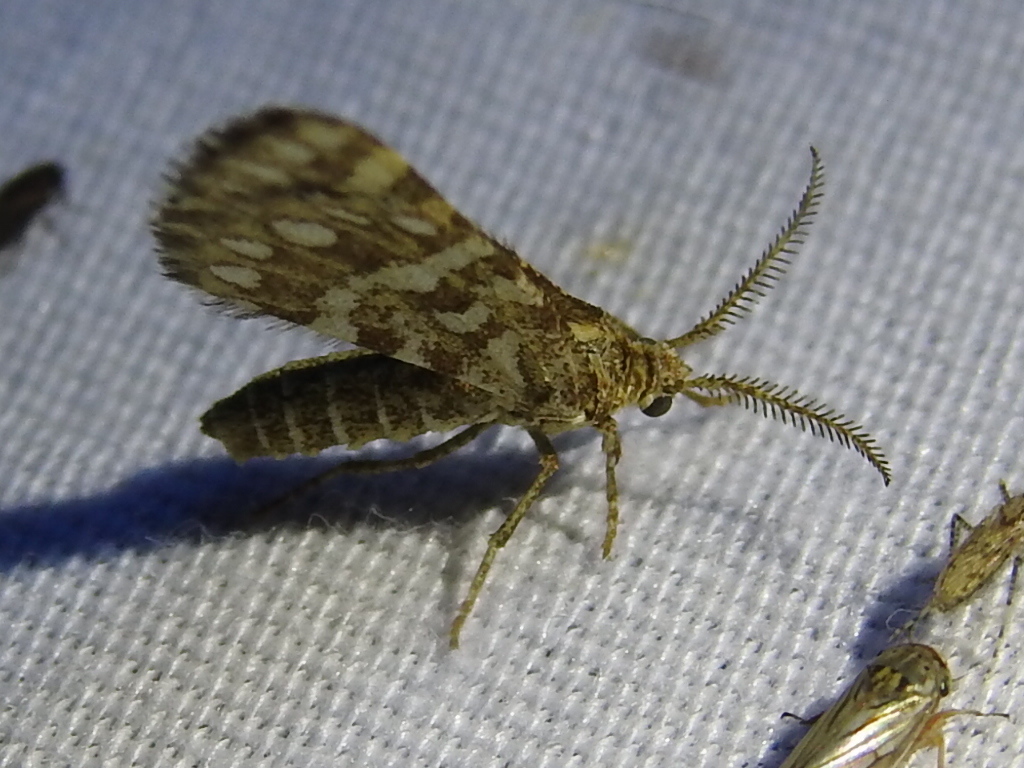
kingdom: Animalia
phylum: Arthropoda
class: Insecta
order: Lepidoptera
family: Geometridae
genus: Narraga
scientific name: Narraga fimetaria
